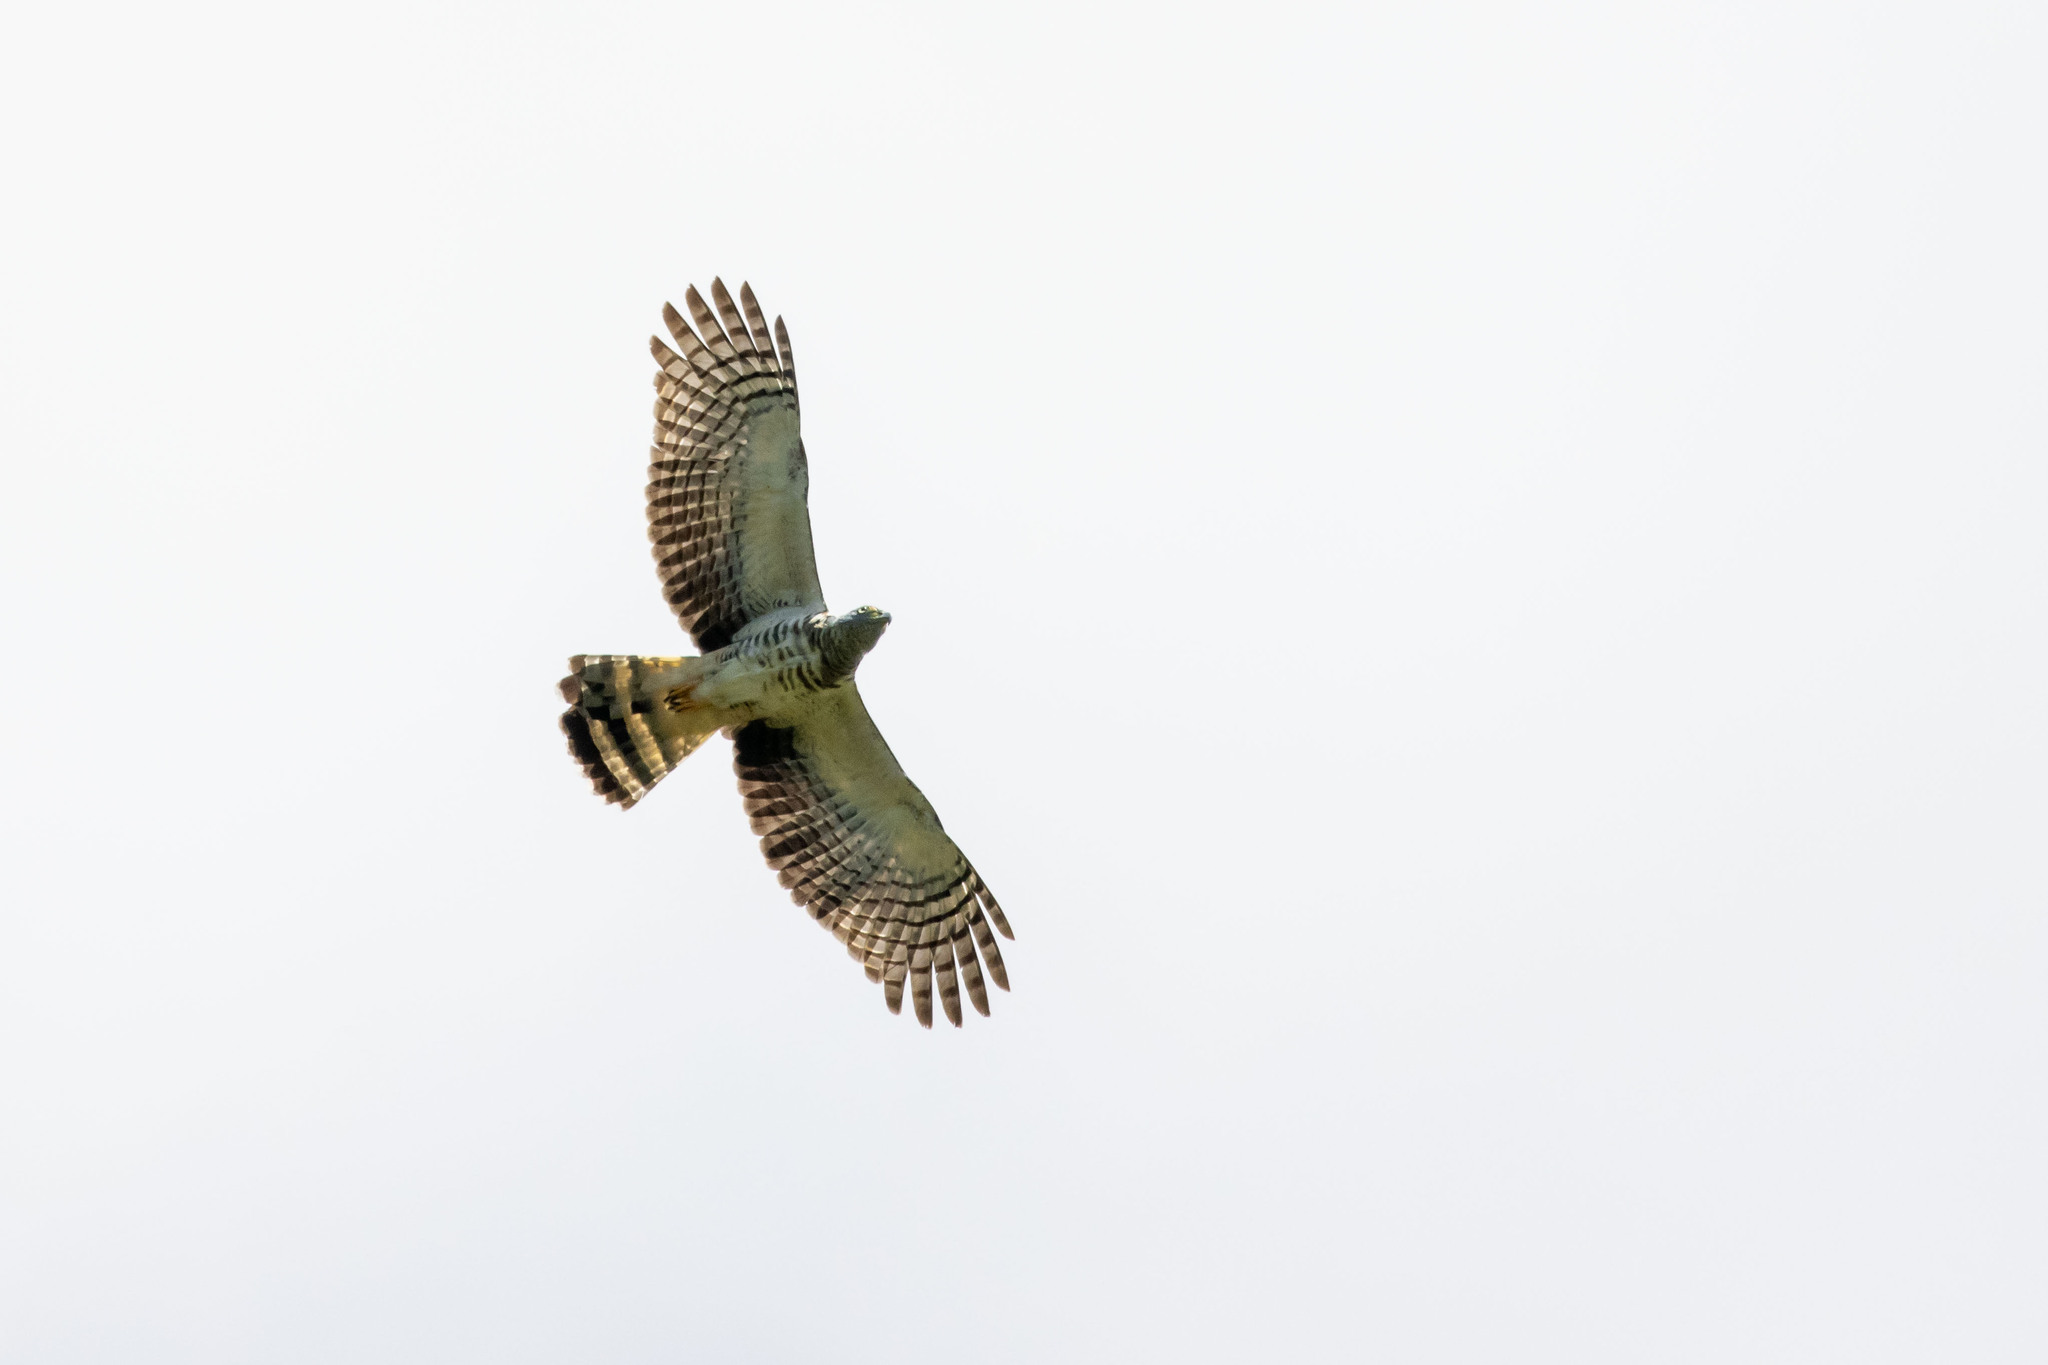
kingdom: Animalia
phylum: Chordata
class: Aves
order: Accipitriformes
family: Accipitridae
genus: Chondrohierax
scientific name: Chondrohierax uncinatus
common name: Hook-billed kite
